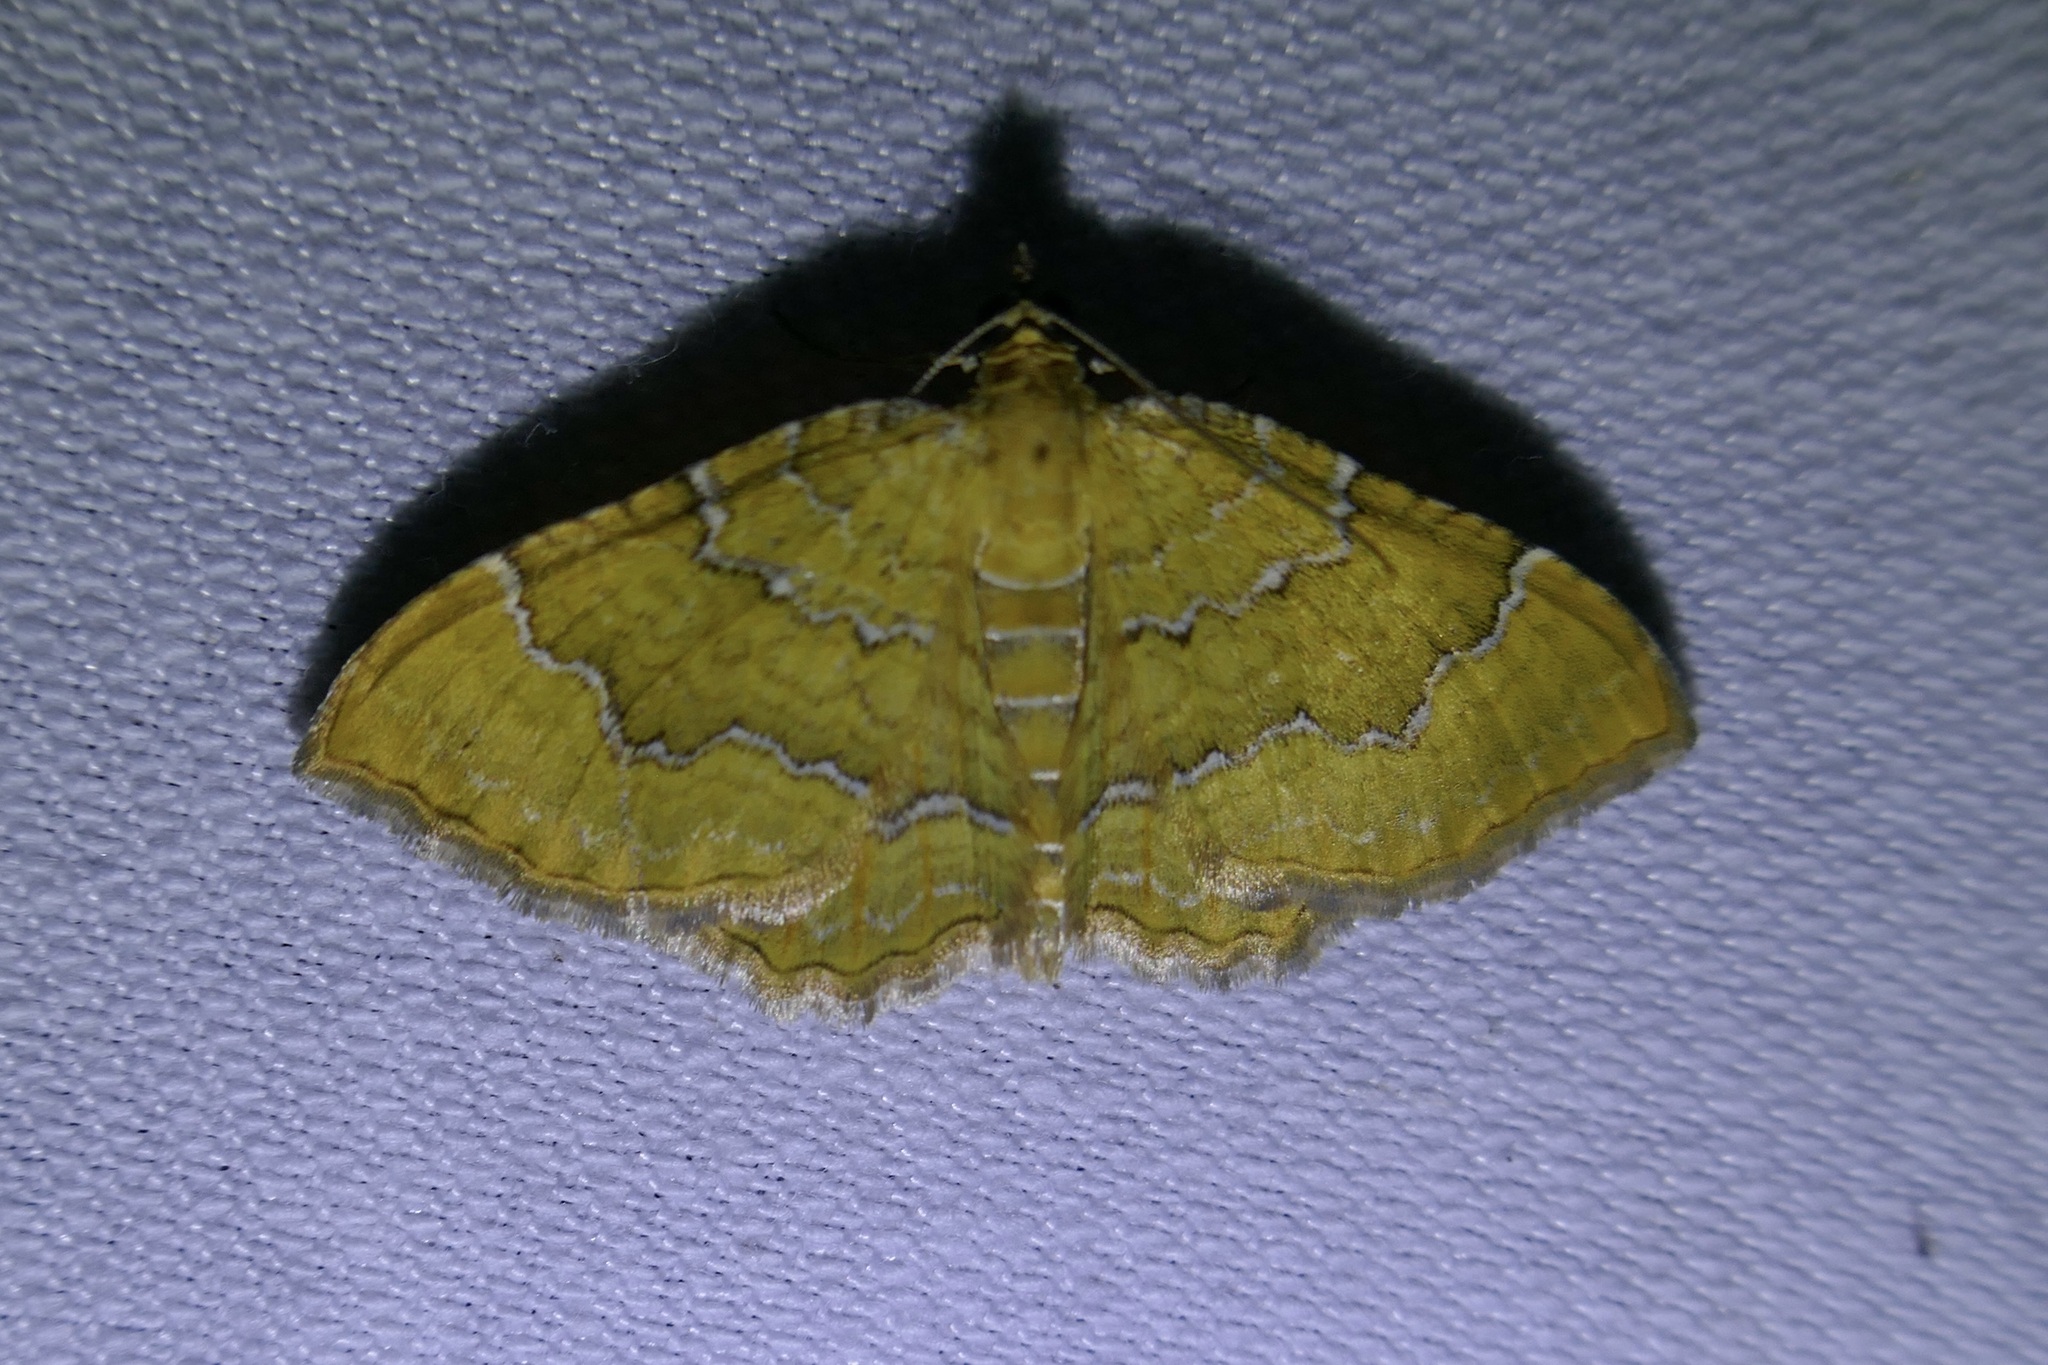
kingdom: Animalia
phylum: Arthropoda
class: Insecta
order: Lepidoptera
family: Geometridae
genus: Camptogramma
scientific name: Camptogramma bilineata
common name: Yellow shell
